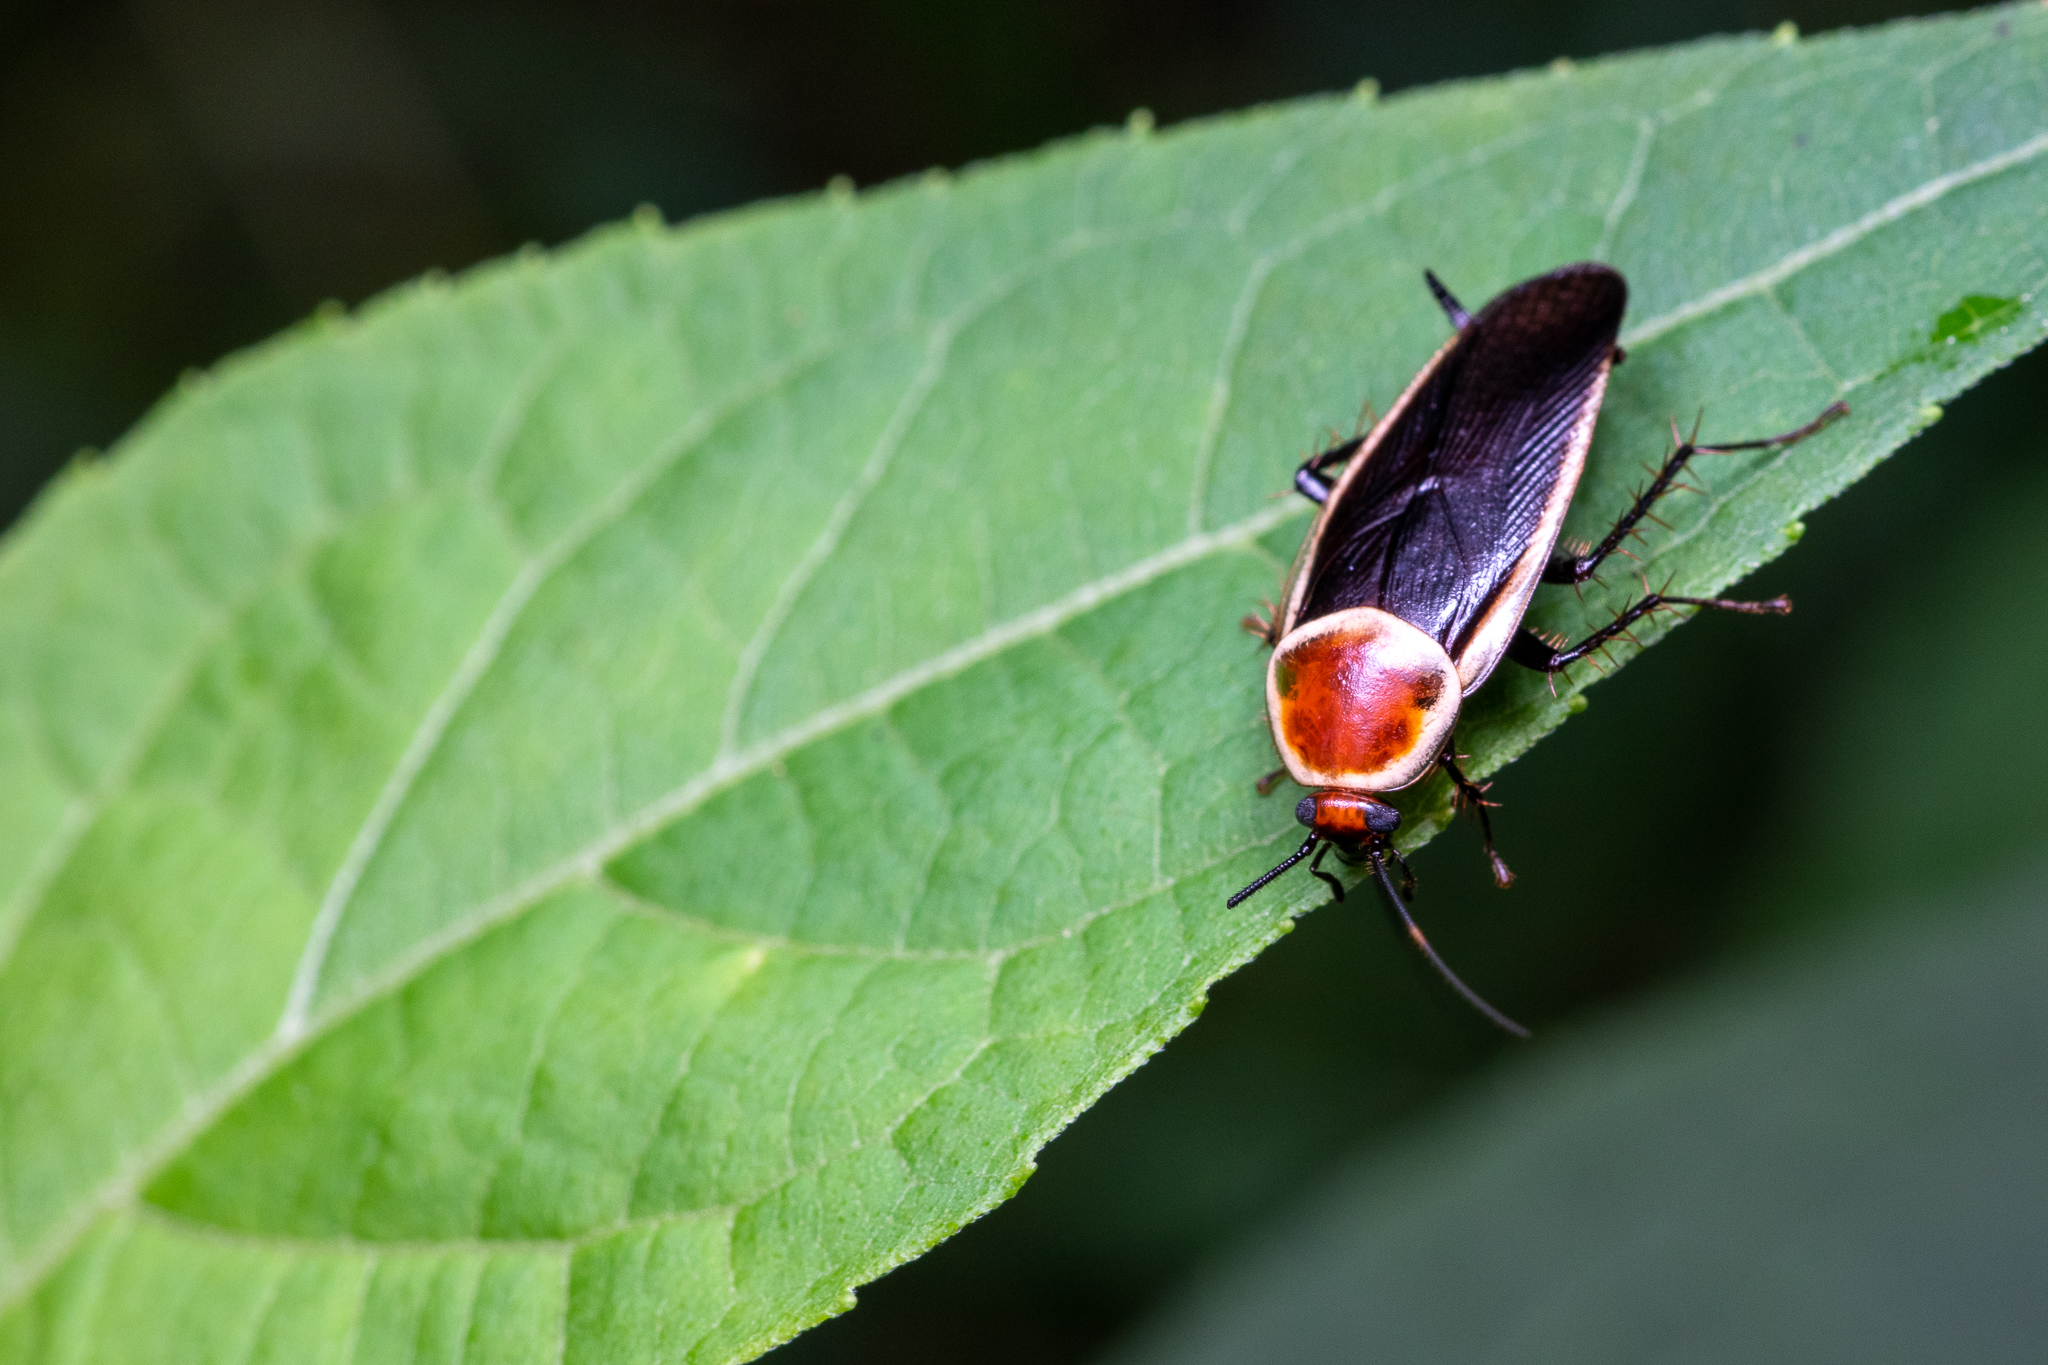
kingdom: Animalia
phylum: Arthropoda
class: Insecta
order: Blattodea
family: Ectobiidae
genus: Pseudomops
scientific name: Pseudomops septentrionalis
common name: Pale-bordered field cockroach
